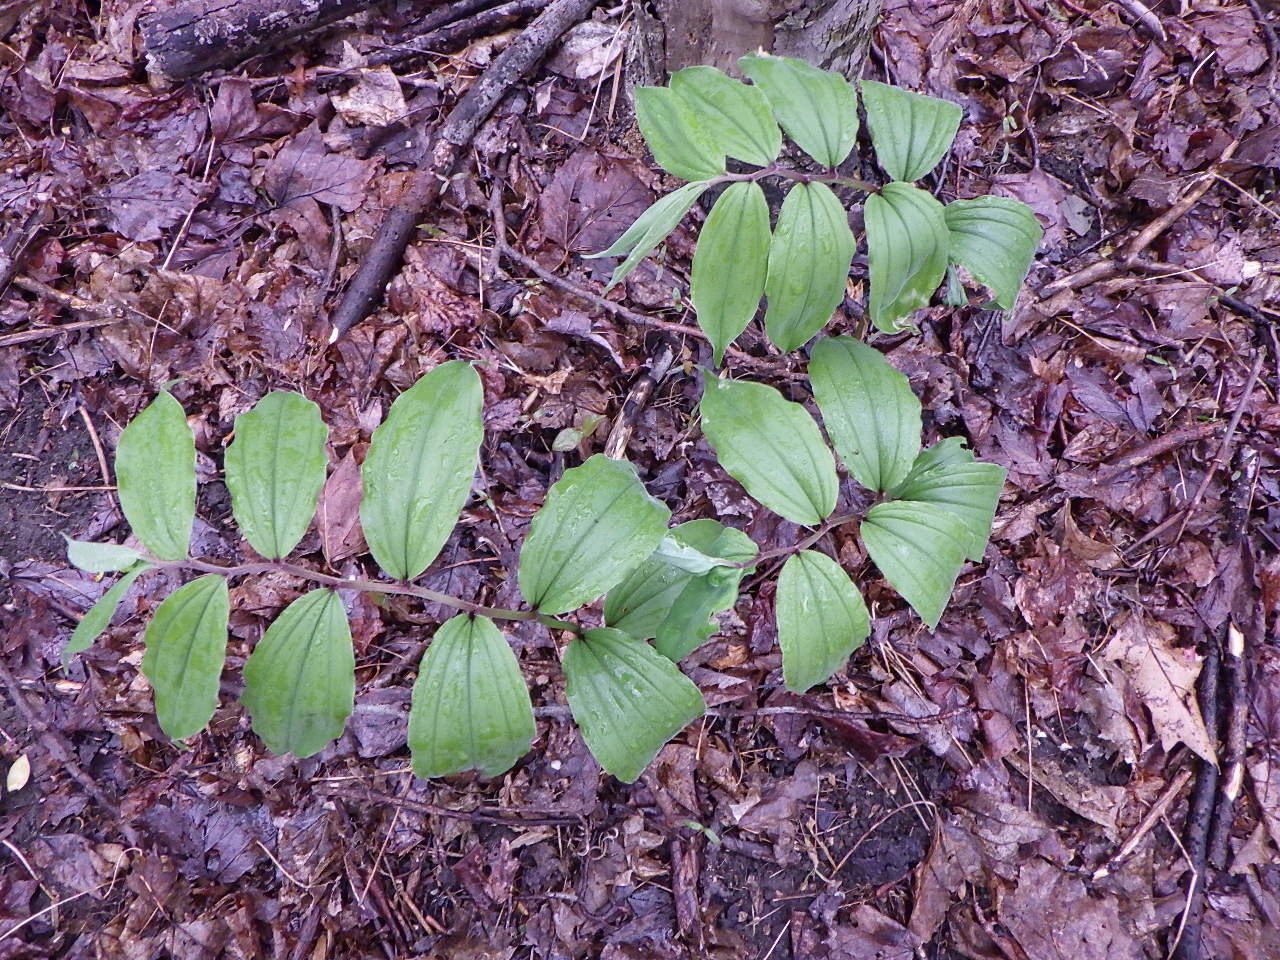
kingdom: Plantae
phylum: Tracheophyta
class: Liliopsida
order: Asparagales
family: Asparagaceae
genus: Maianthemum
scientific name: Maianthemum racemosum
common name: False spikenard
